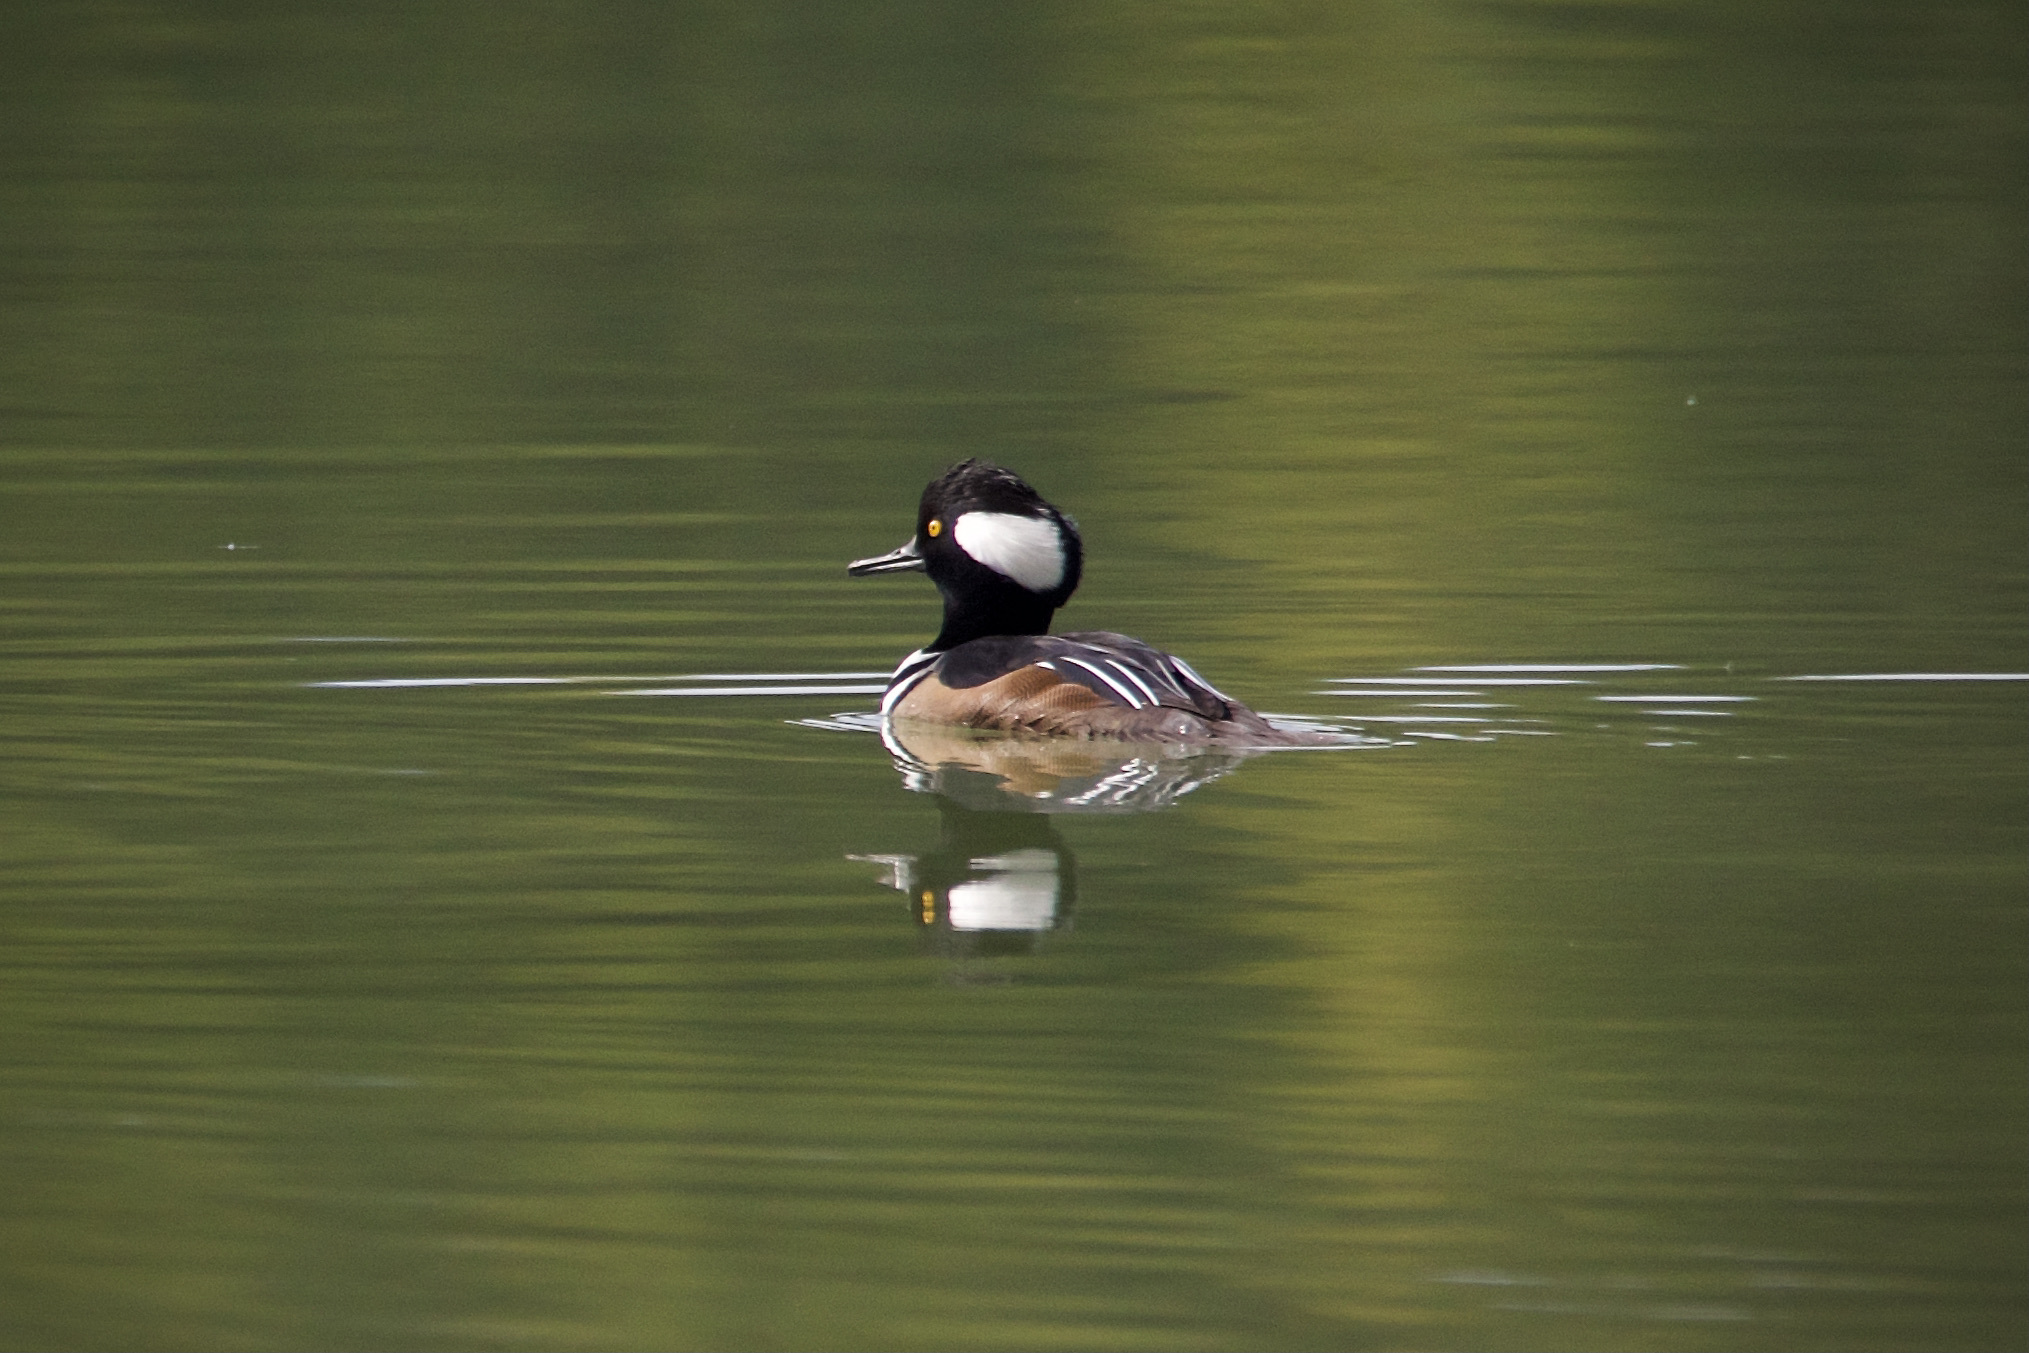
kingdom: Animalia
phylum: Chordata
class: Aves
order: Anseriformes
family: Anatidae
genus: Lophodytes
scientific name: Lophodytes cucullatus
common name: Hooded merganser
